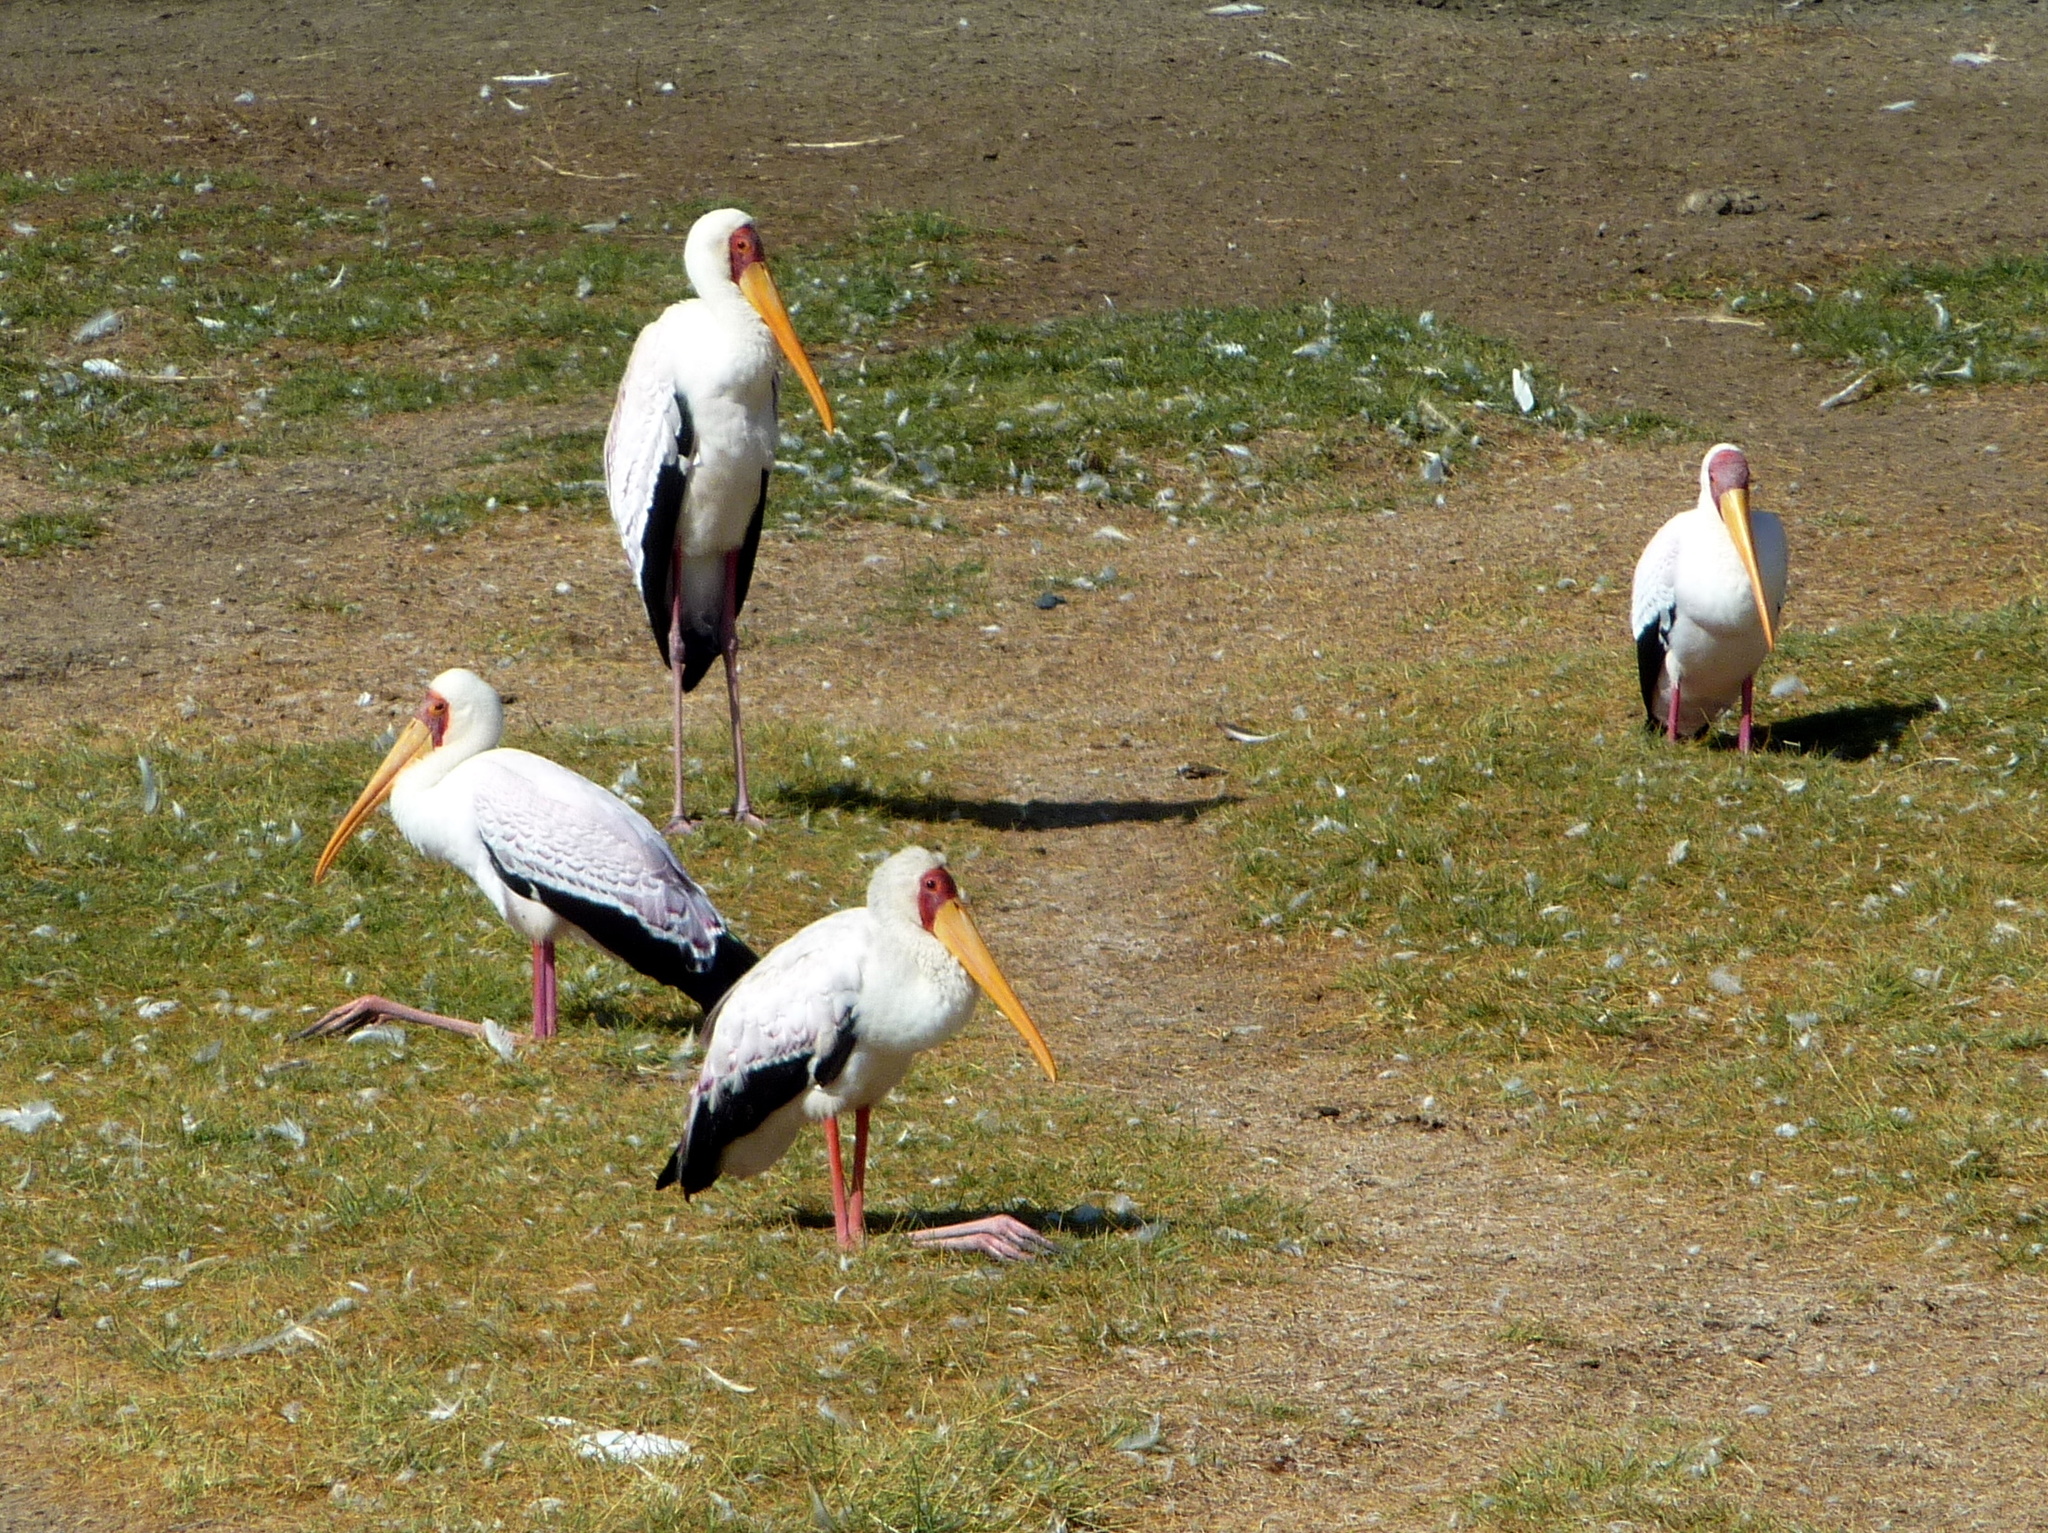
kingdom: Animalia
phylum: Chordata
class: Aves
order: Ciconiiformes
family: Ciconiidae
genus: Mycteria
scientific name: Mycteria ibis
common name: Yellow-billed stork
